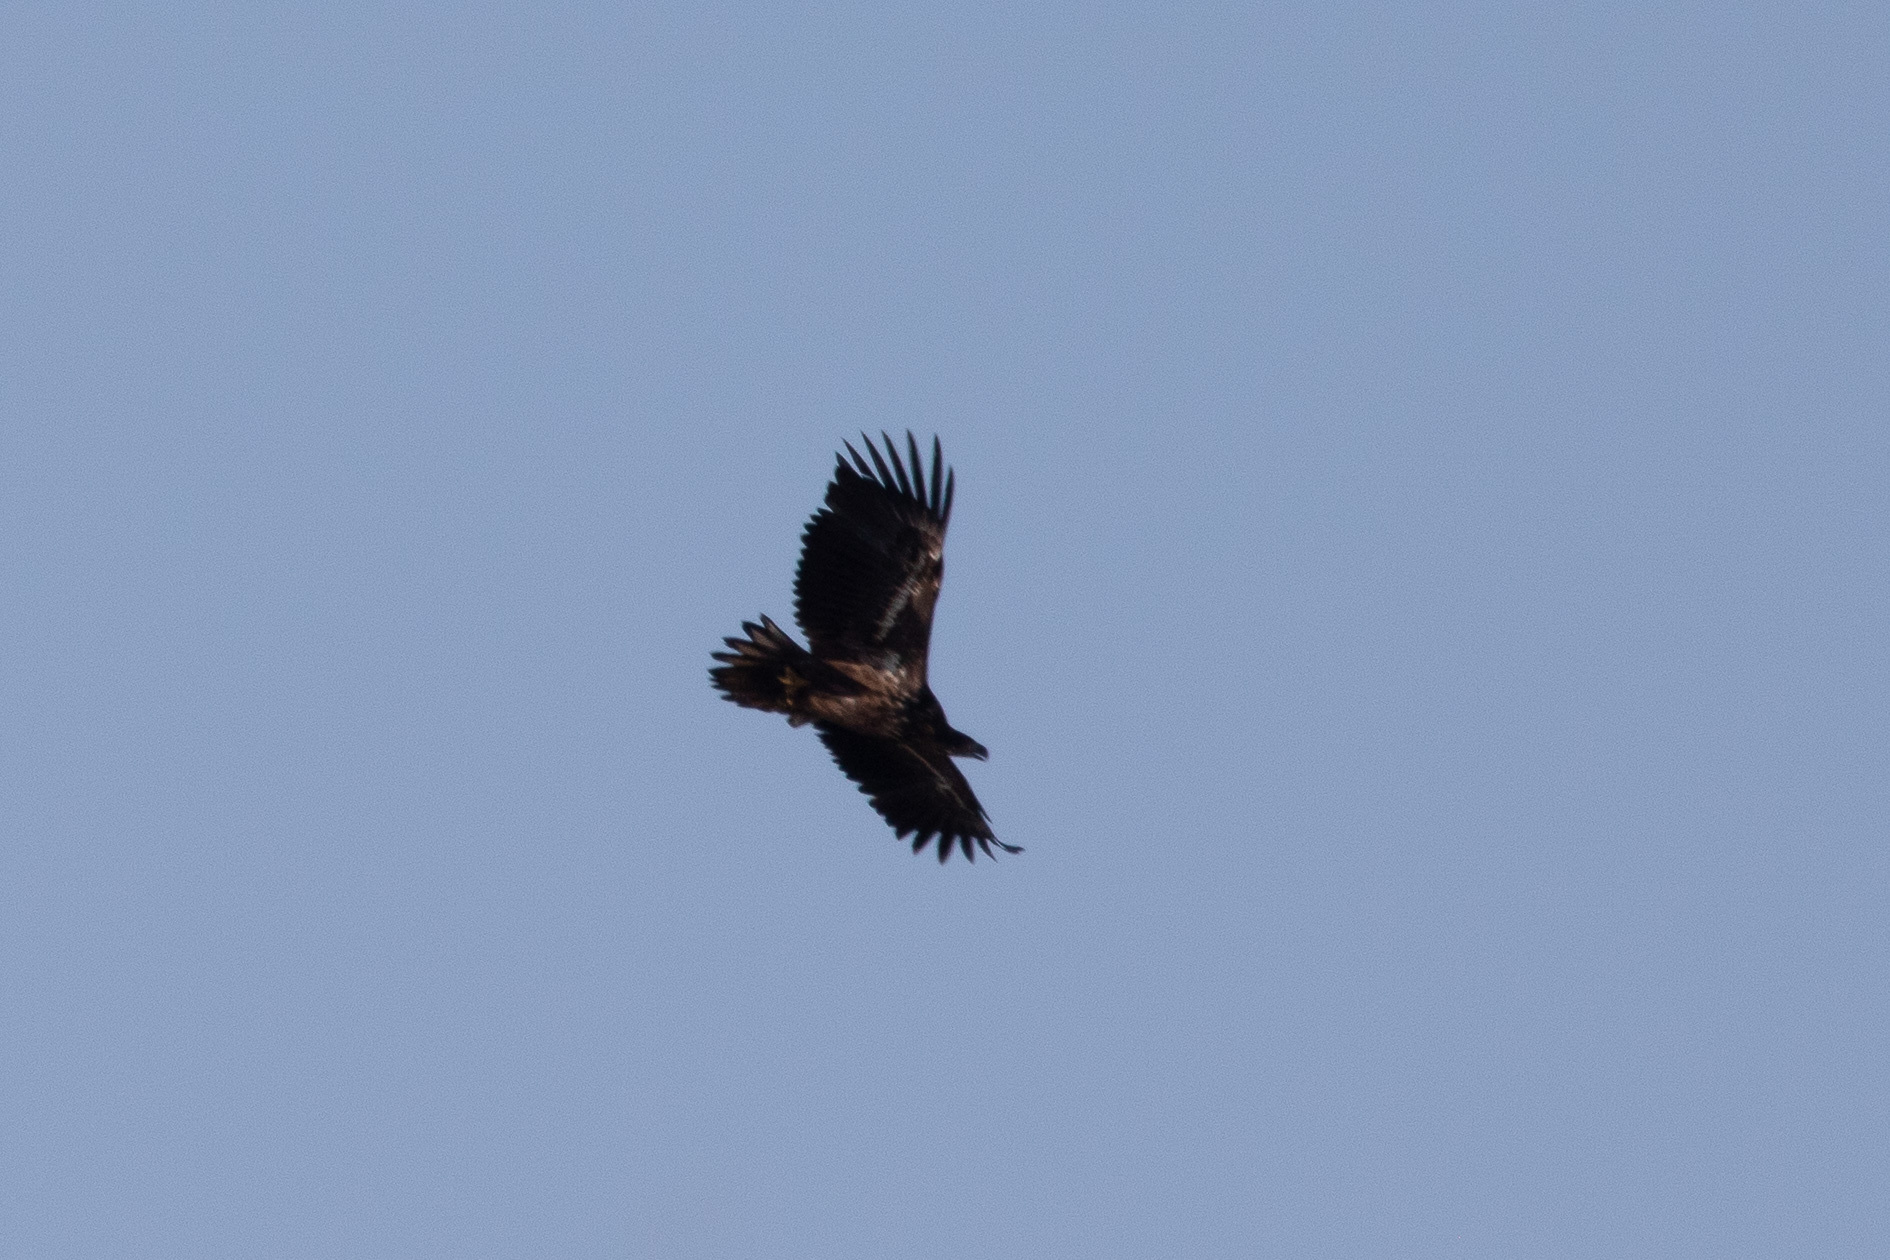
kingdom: Animalia
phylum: Chordata
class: Aves
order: Accipitriformes
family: Accipitridae
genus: Haliaeetus
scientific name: Haliaeetus albicilla
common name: White-tailed eagle
